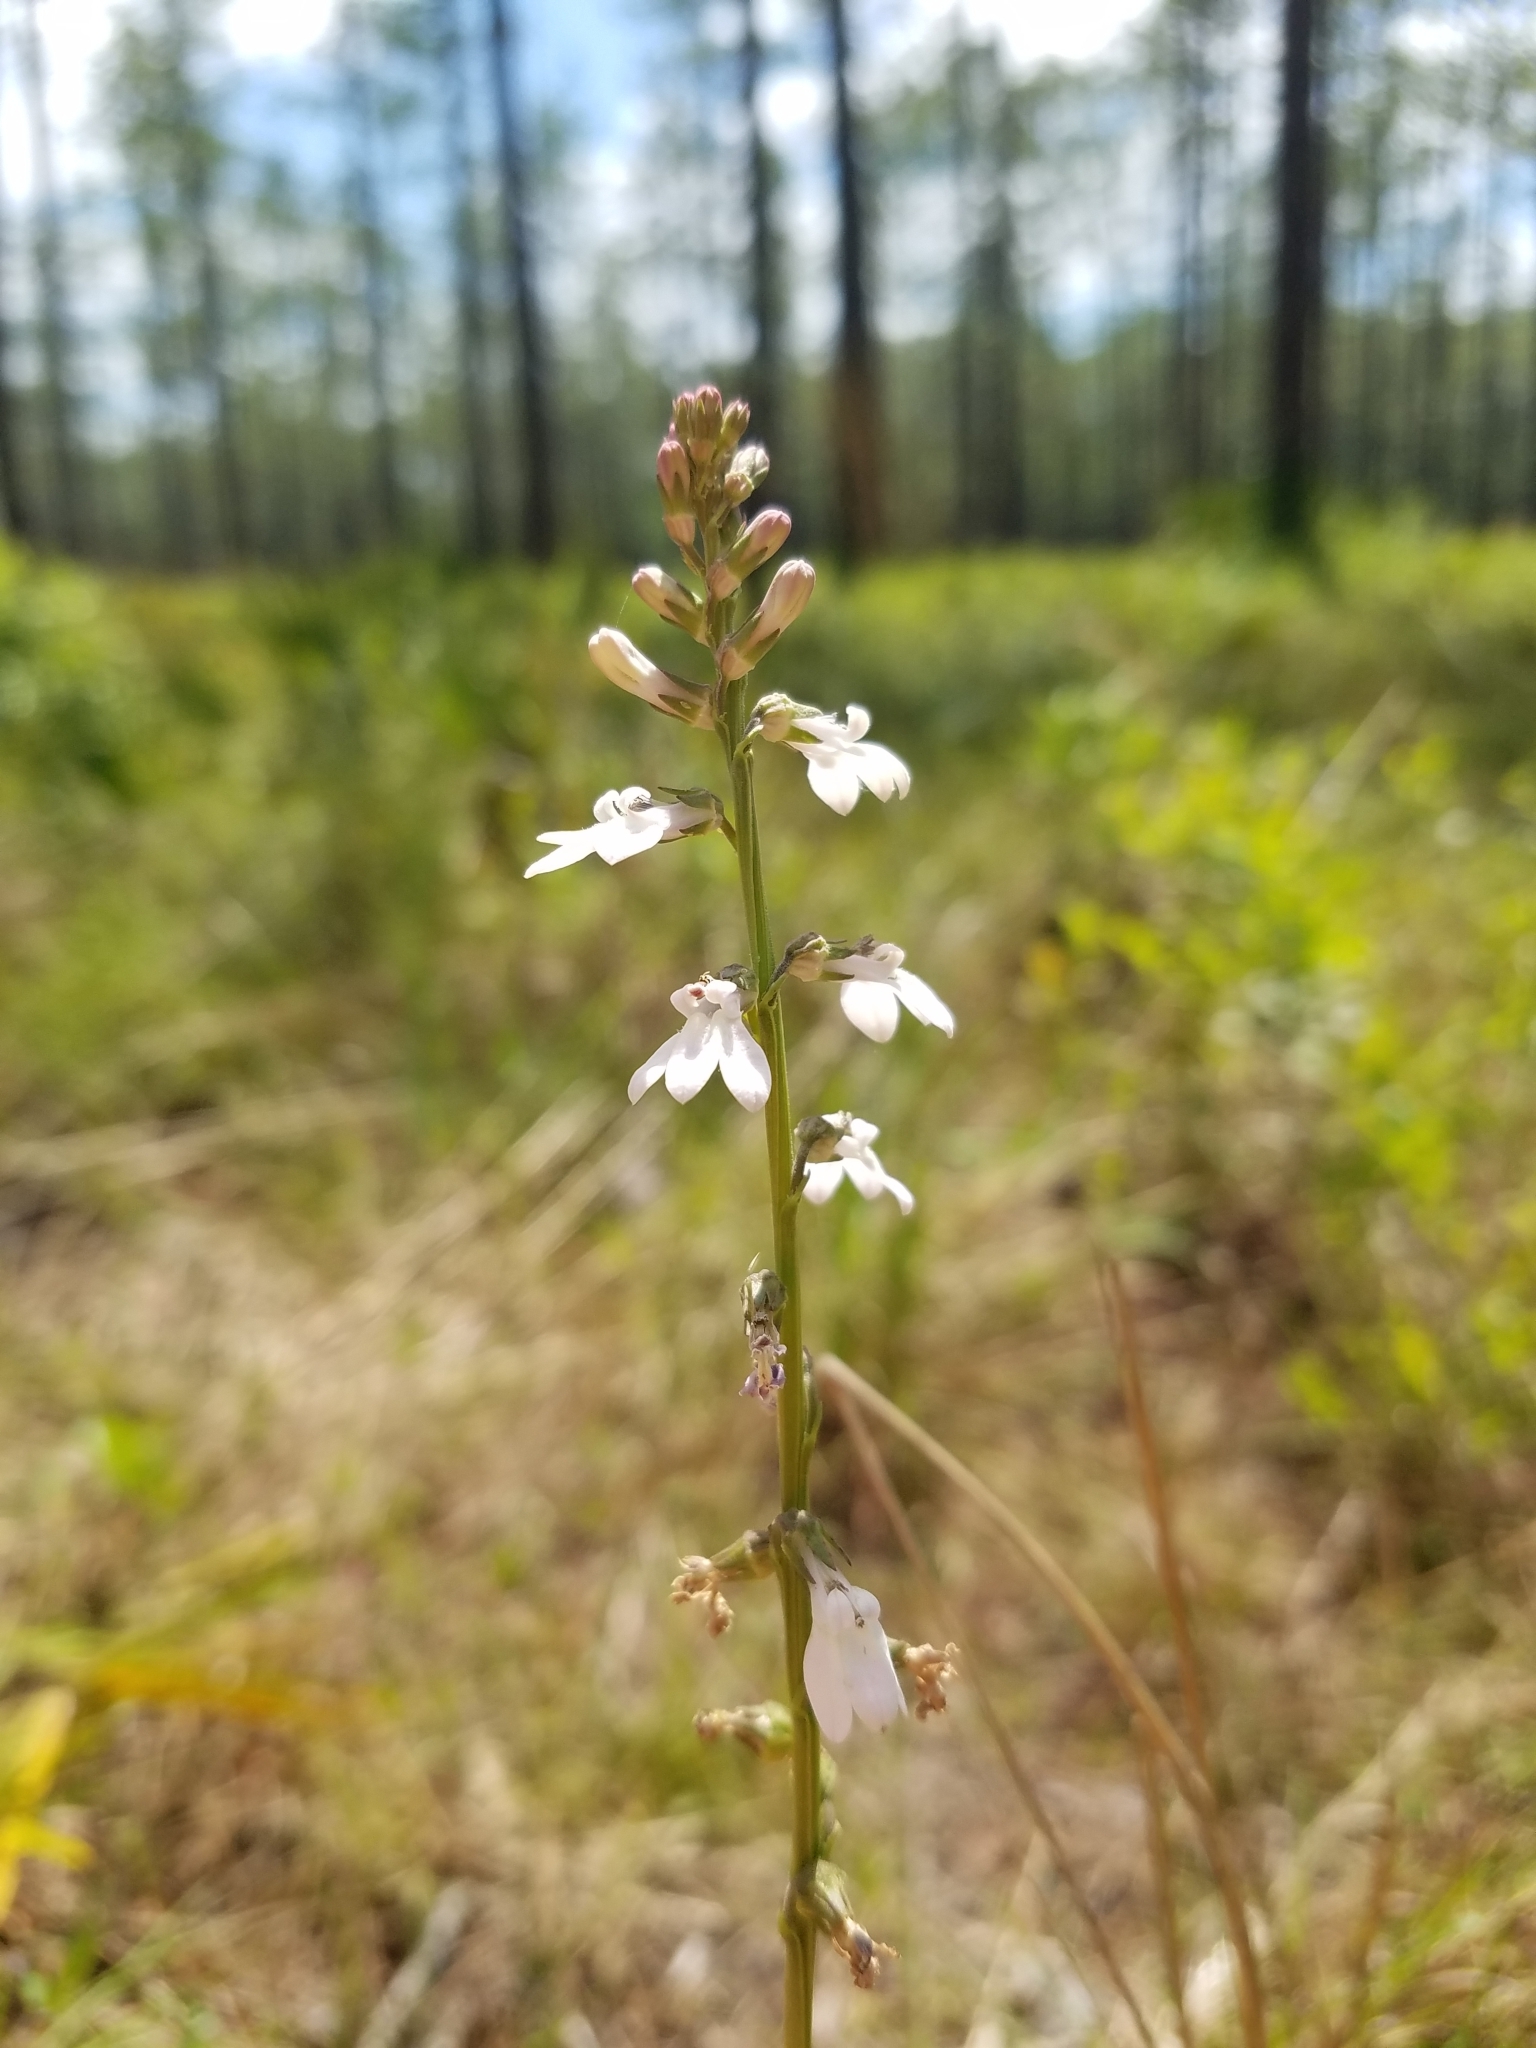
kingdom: Plantae
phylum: Tracheophyta
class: Magnoliopsida
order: Asterales
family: Campanulaceae
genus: Lobelia
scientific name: Lobelia paludosa
